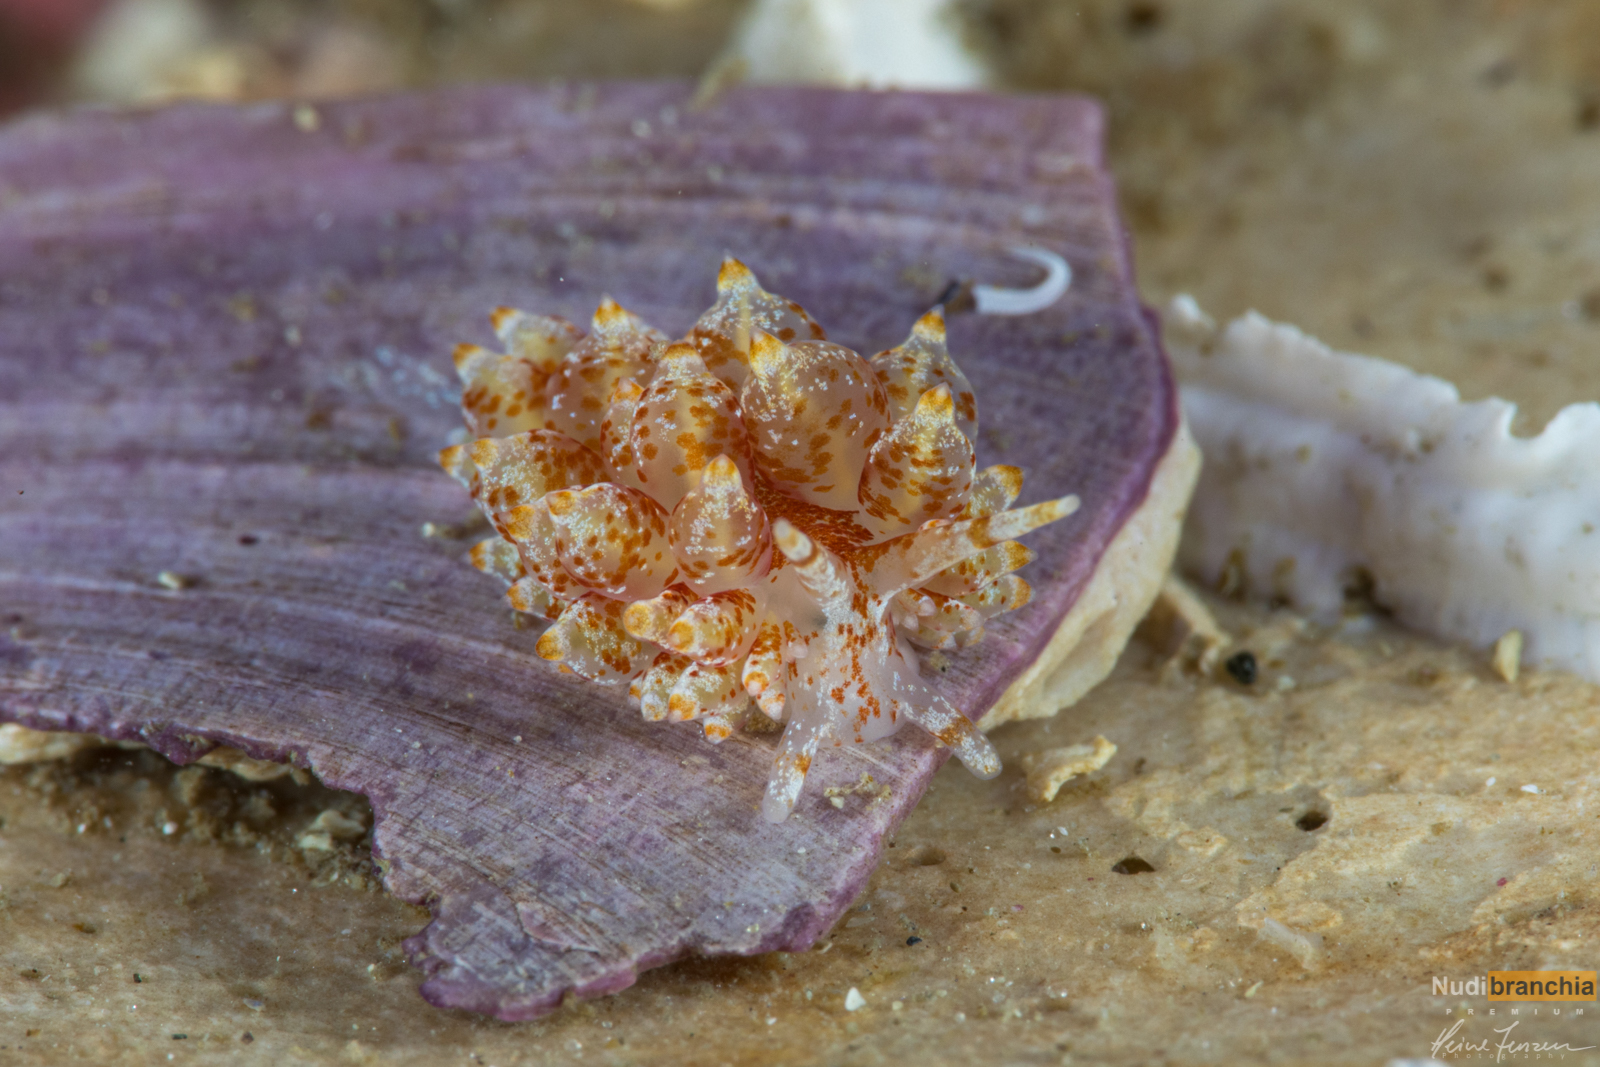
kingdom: Animalia
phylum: Mollusca
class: Gastropoda
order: Nudibranchia
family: Eubranchidae
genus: Amphorina
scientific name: Amphorina pallida
